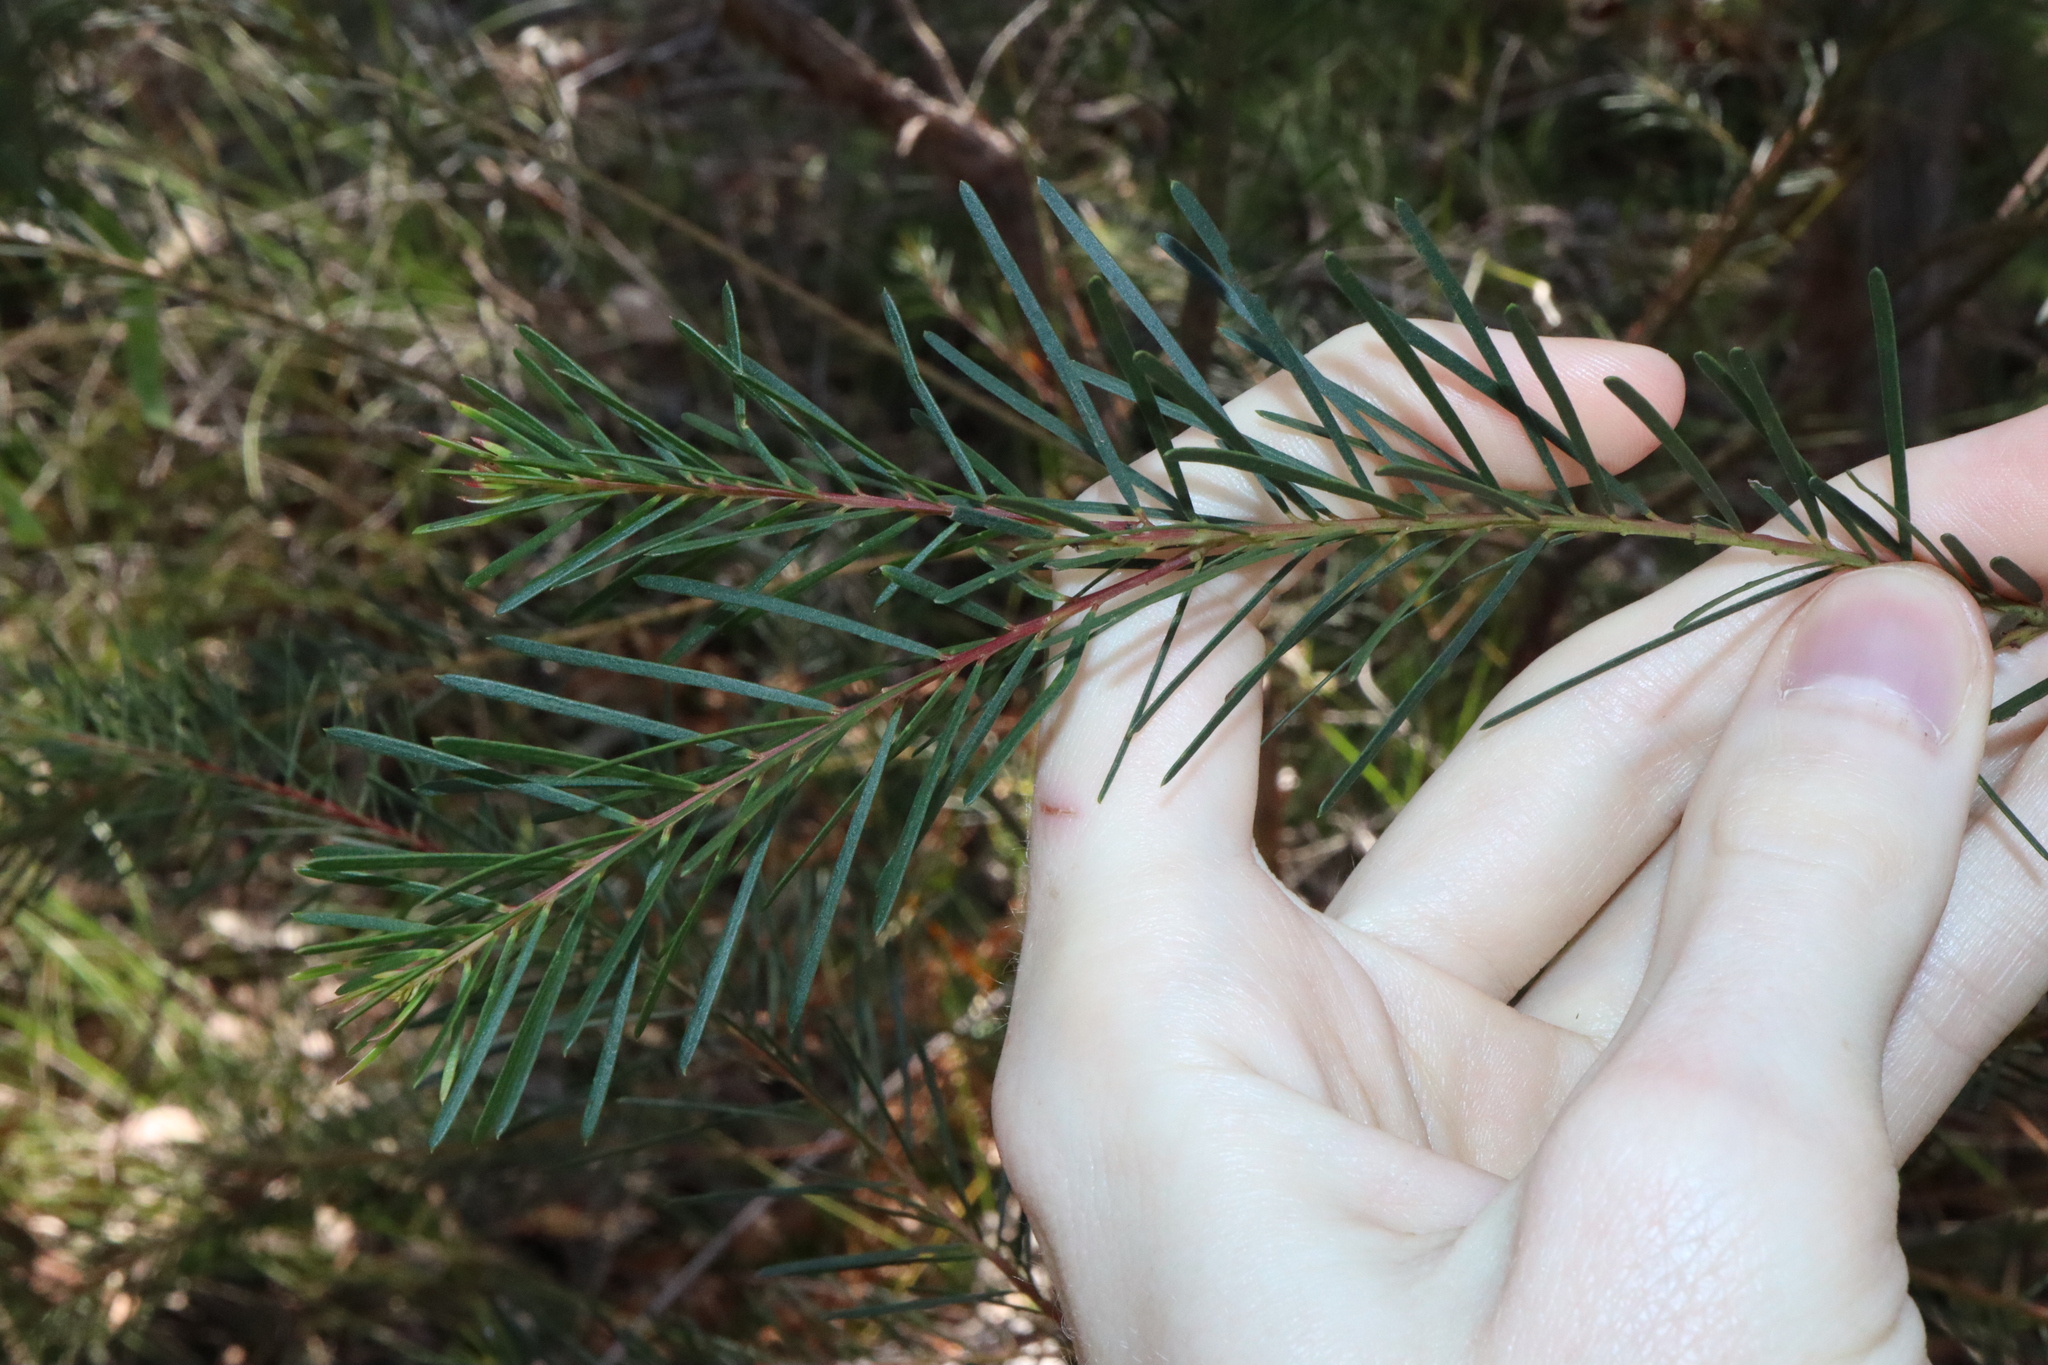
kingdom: Plantae
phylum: Tracheophyta
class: Magnoliopsida
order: Fabales
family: Fabaceae
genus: Acacia
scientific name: Acacia linifolia
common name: White wattle
